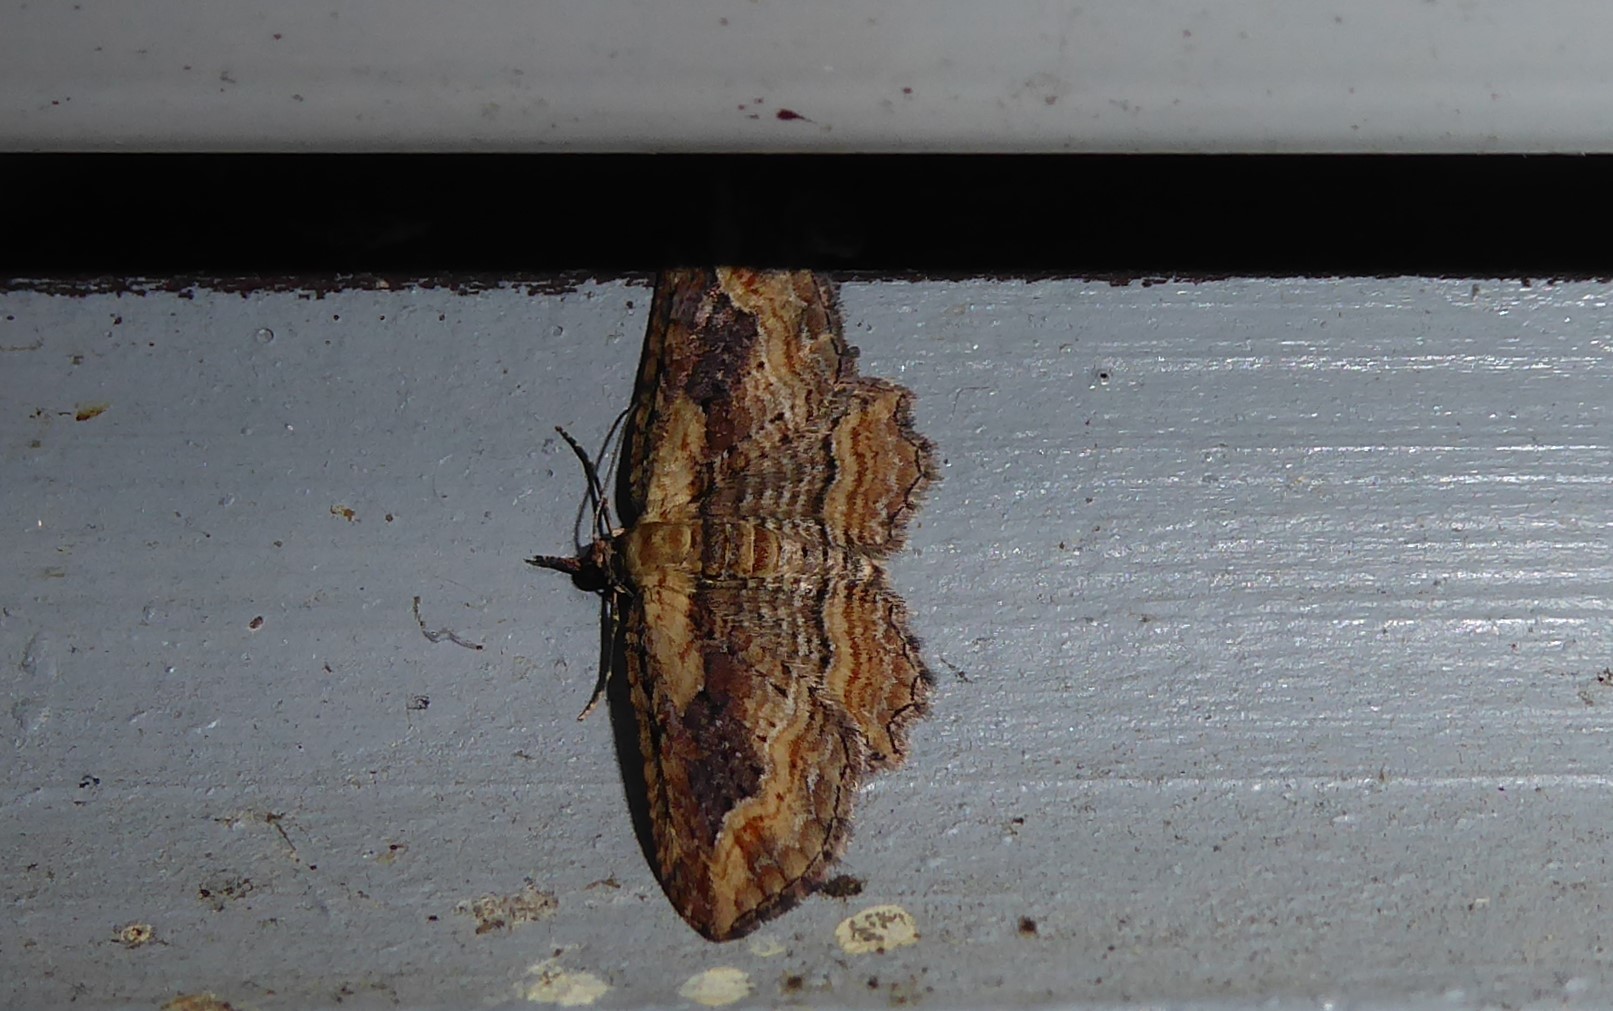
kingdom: Animalia
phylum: Arthropoda
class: Insecta
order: Lepidoptera
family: Geometridae
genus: Chloroclystis
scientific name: Chloroclystis filata
